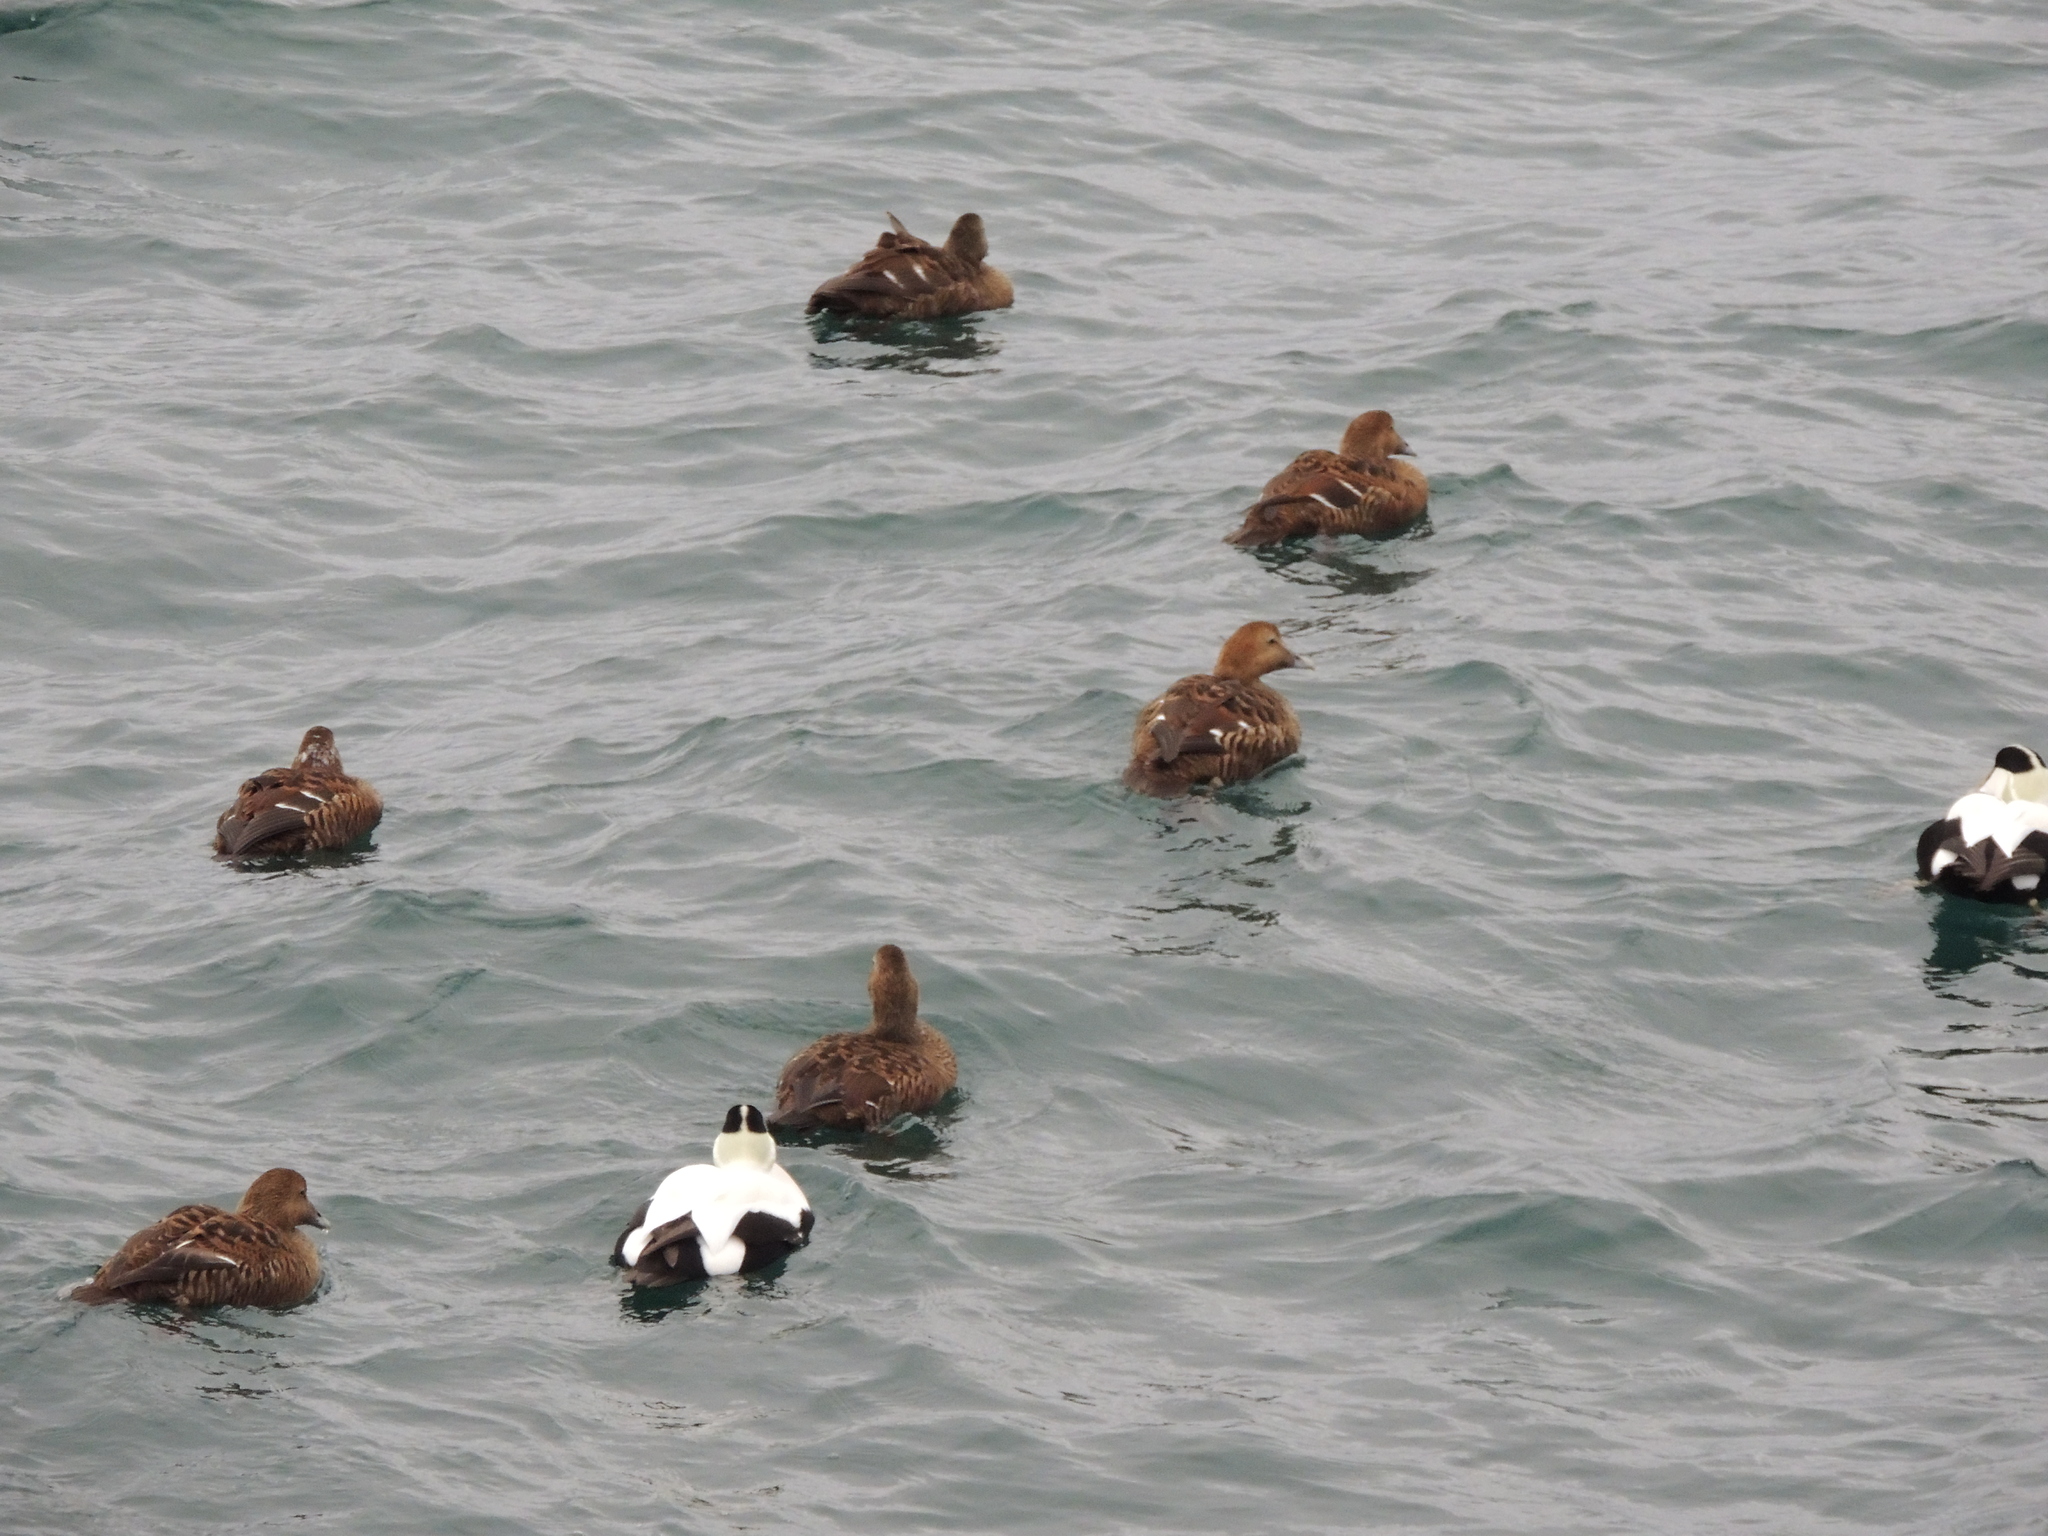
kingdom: Animalia
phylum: Chordata
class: Aves
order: Anseriformes
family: Anatidae
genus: Somateria
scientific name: Somateria mollissima
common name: Common eider
